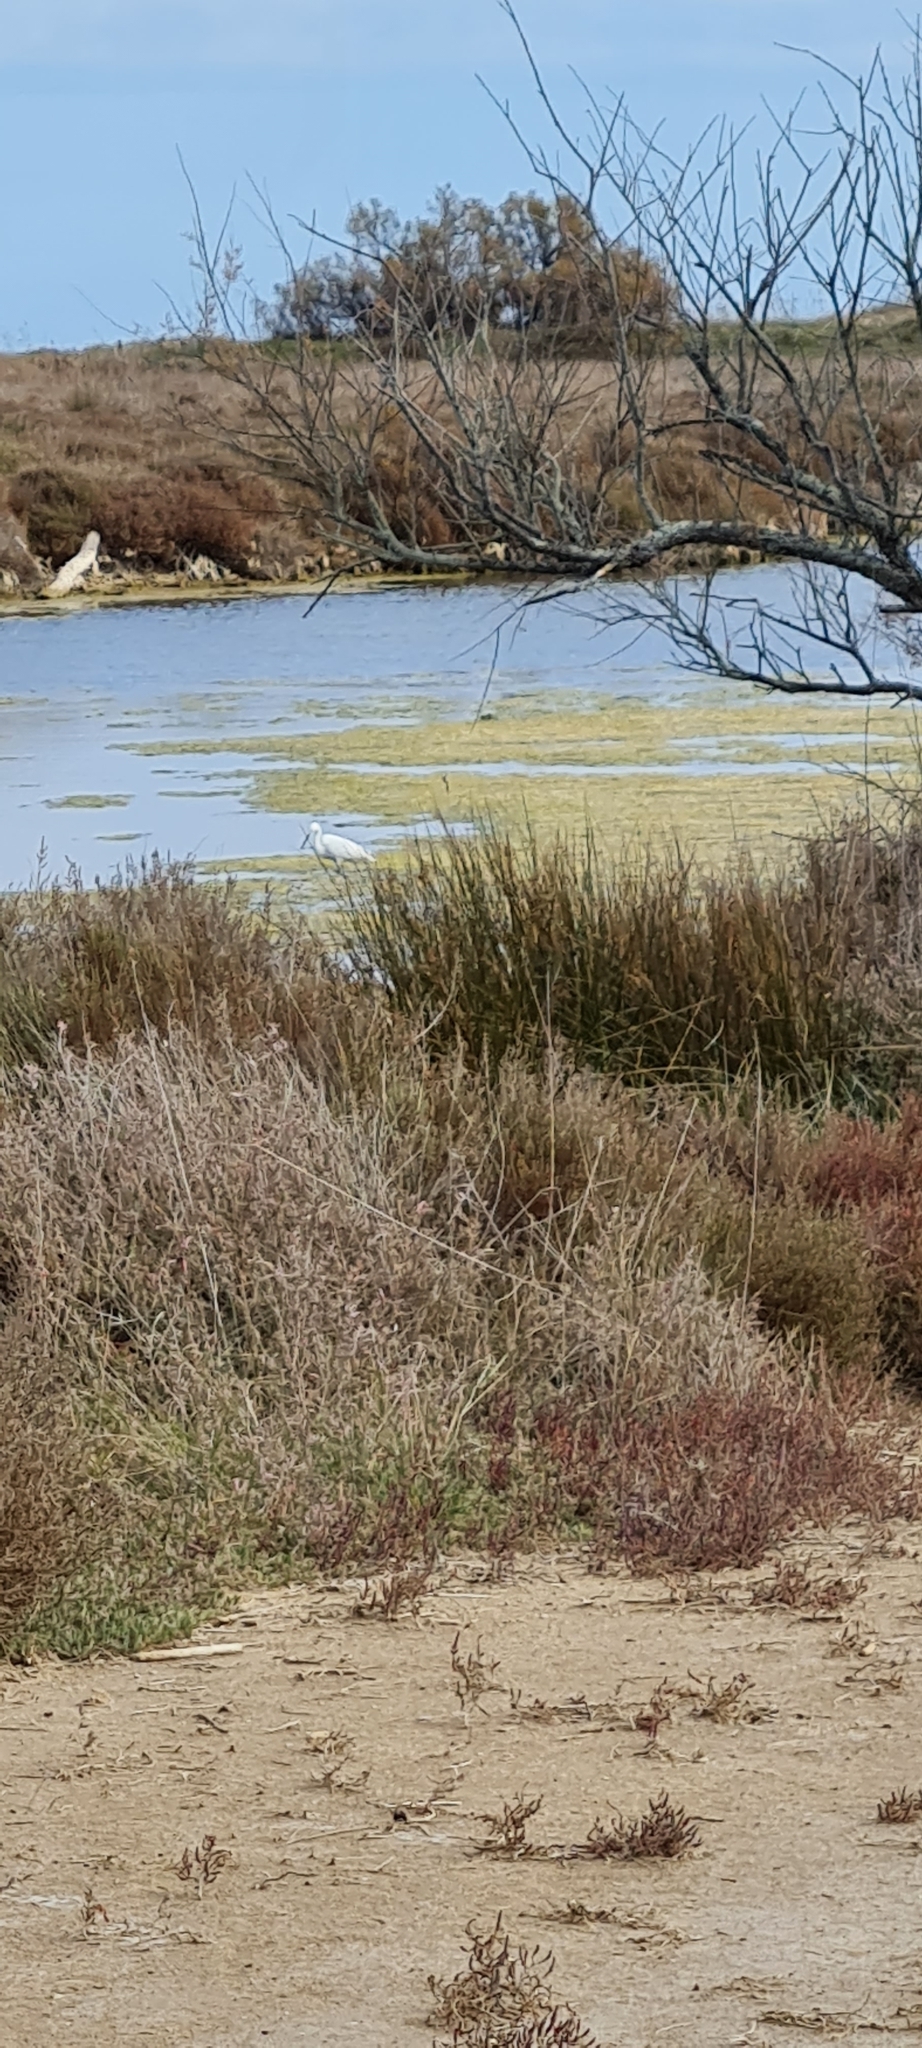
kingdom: Animalia
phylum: Chordata
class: Aves
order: Pelecaniformes
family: Ardeidae
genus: Egretta
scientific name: Egretta garzetta
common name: Little egret
